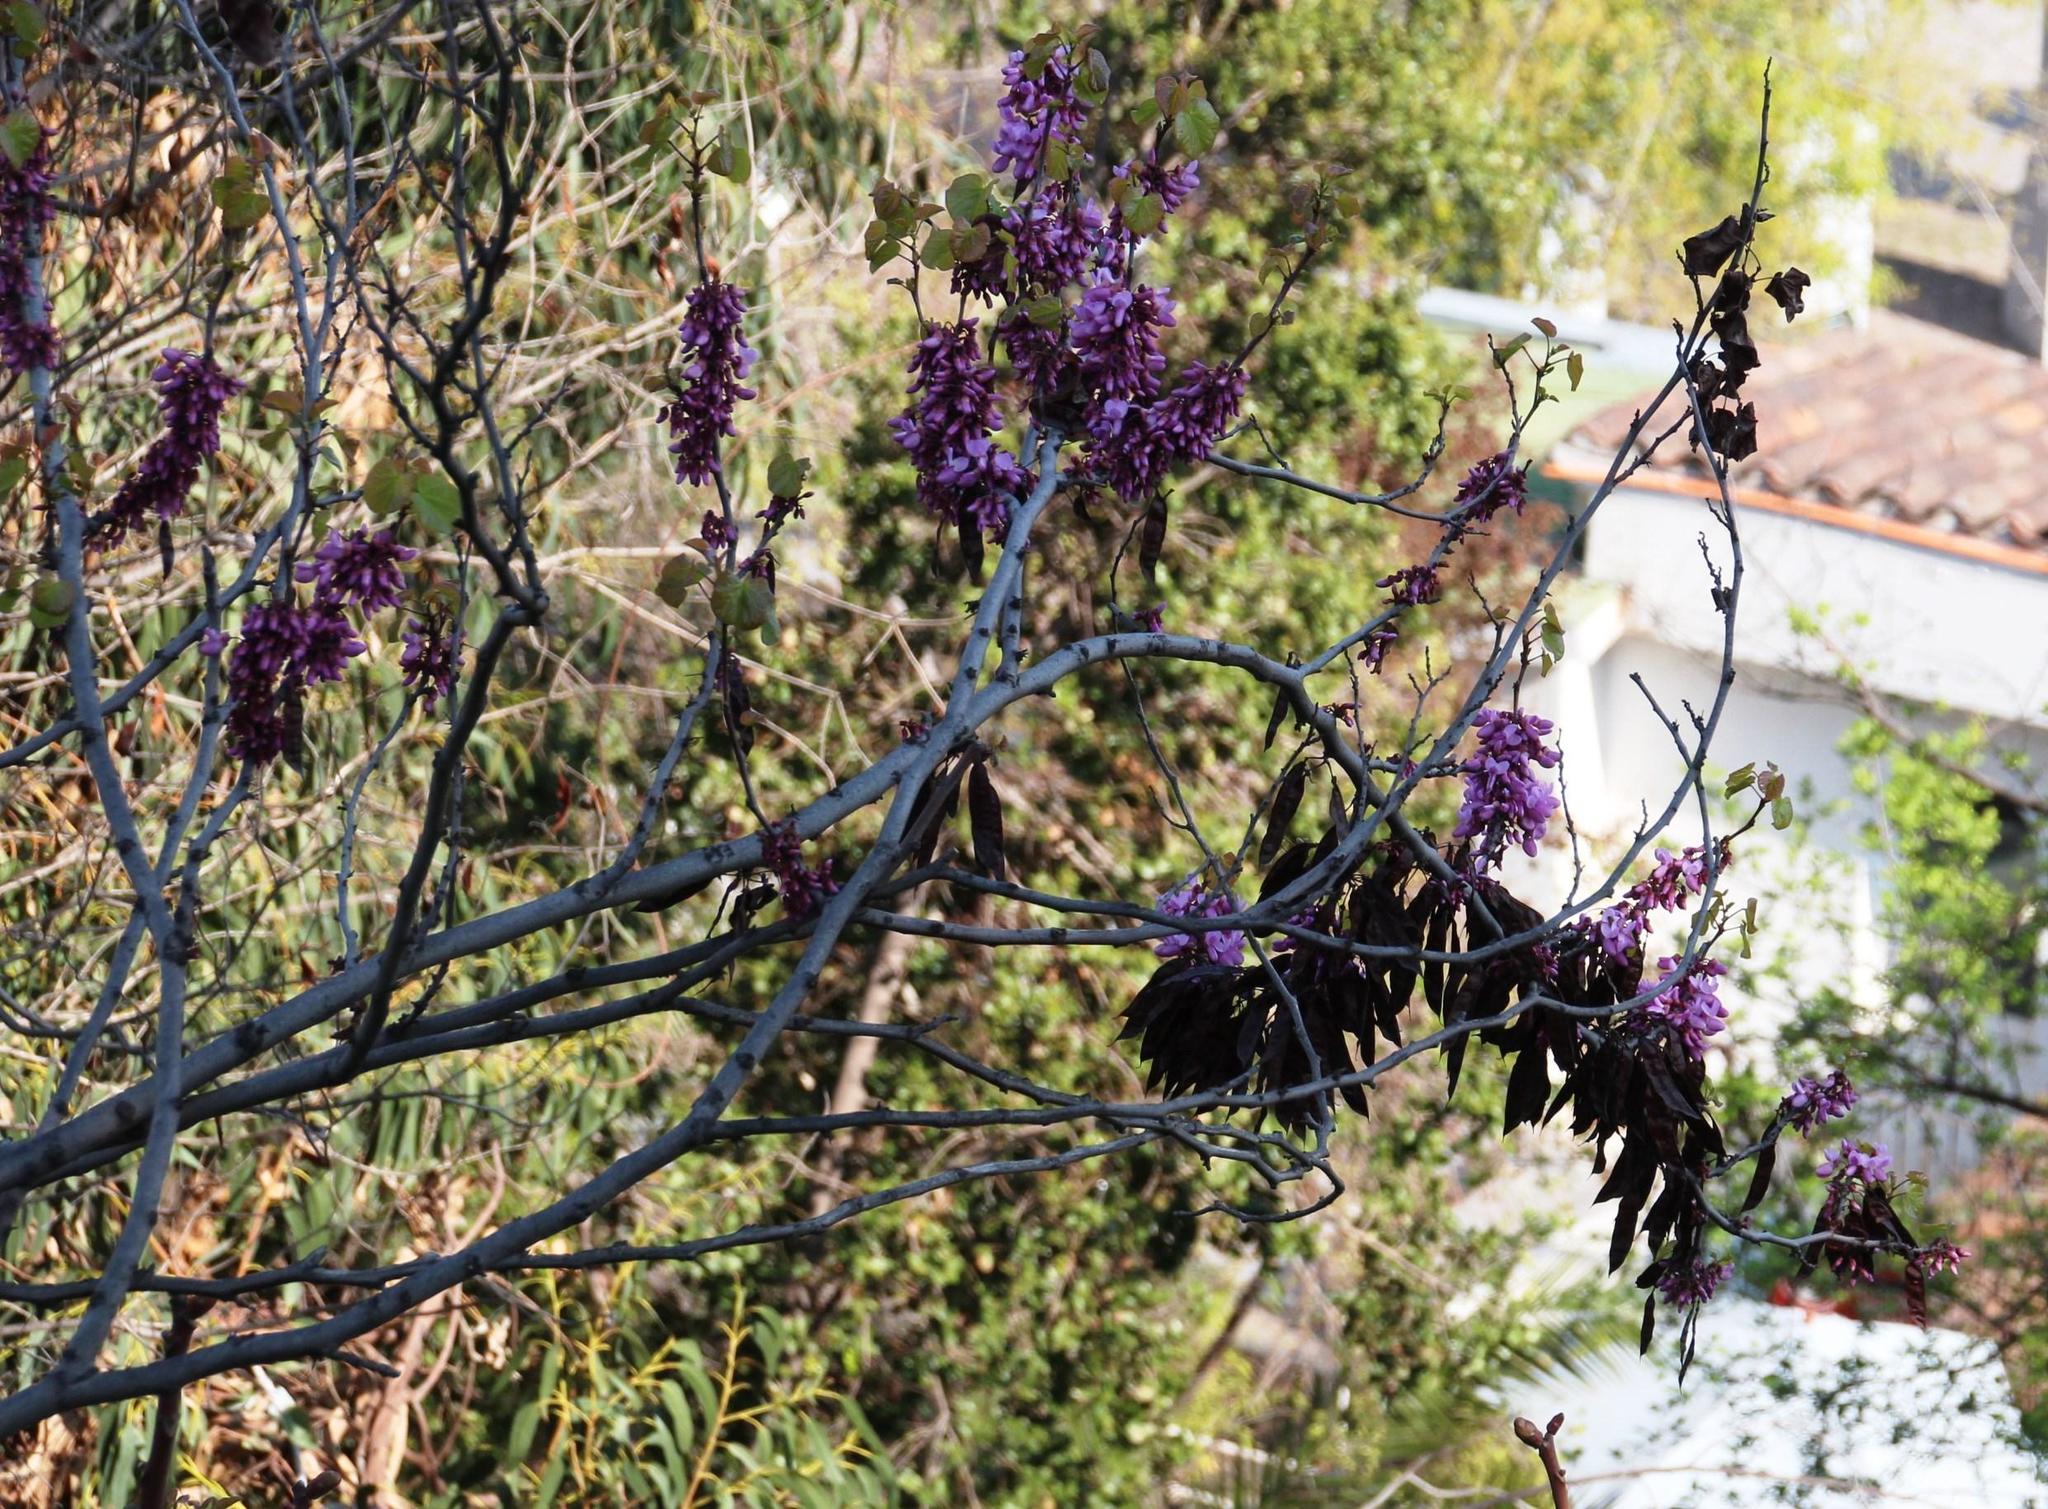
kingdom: Plantae
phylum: Tracheophyta
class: Magnoliopsida
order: Fabales
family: Fabaceae
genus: Cercis
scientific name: Cercis siliquastrum
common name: Judas tree
